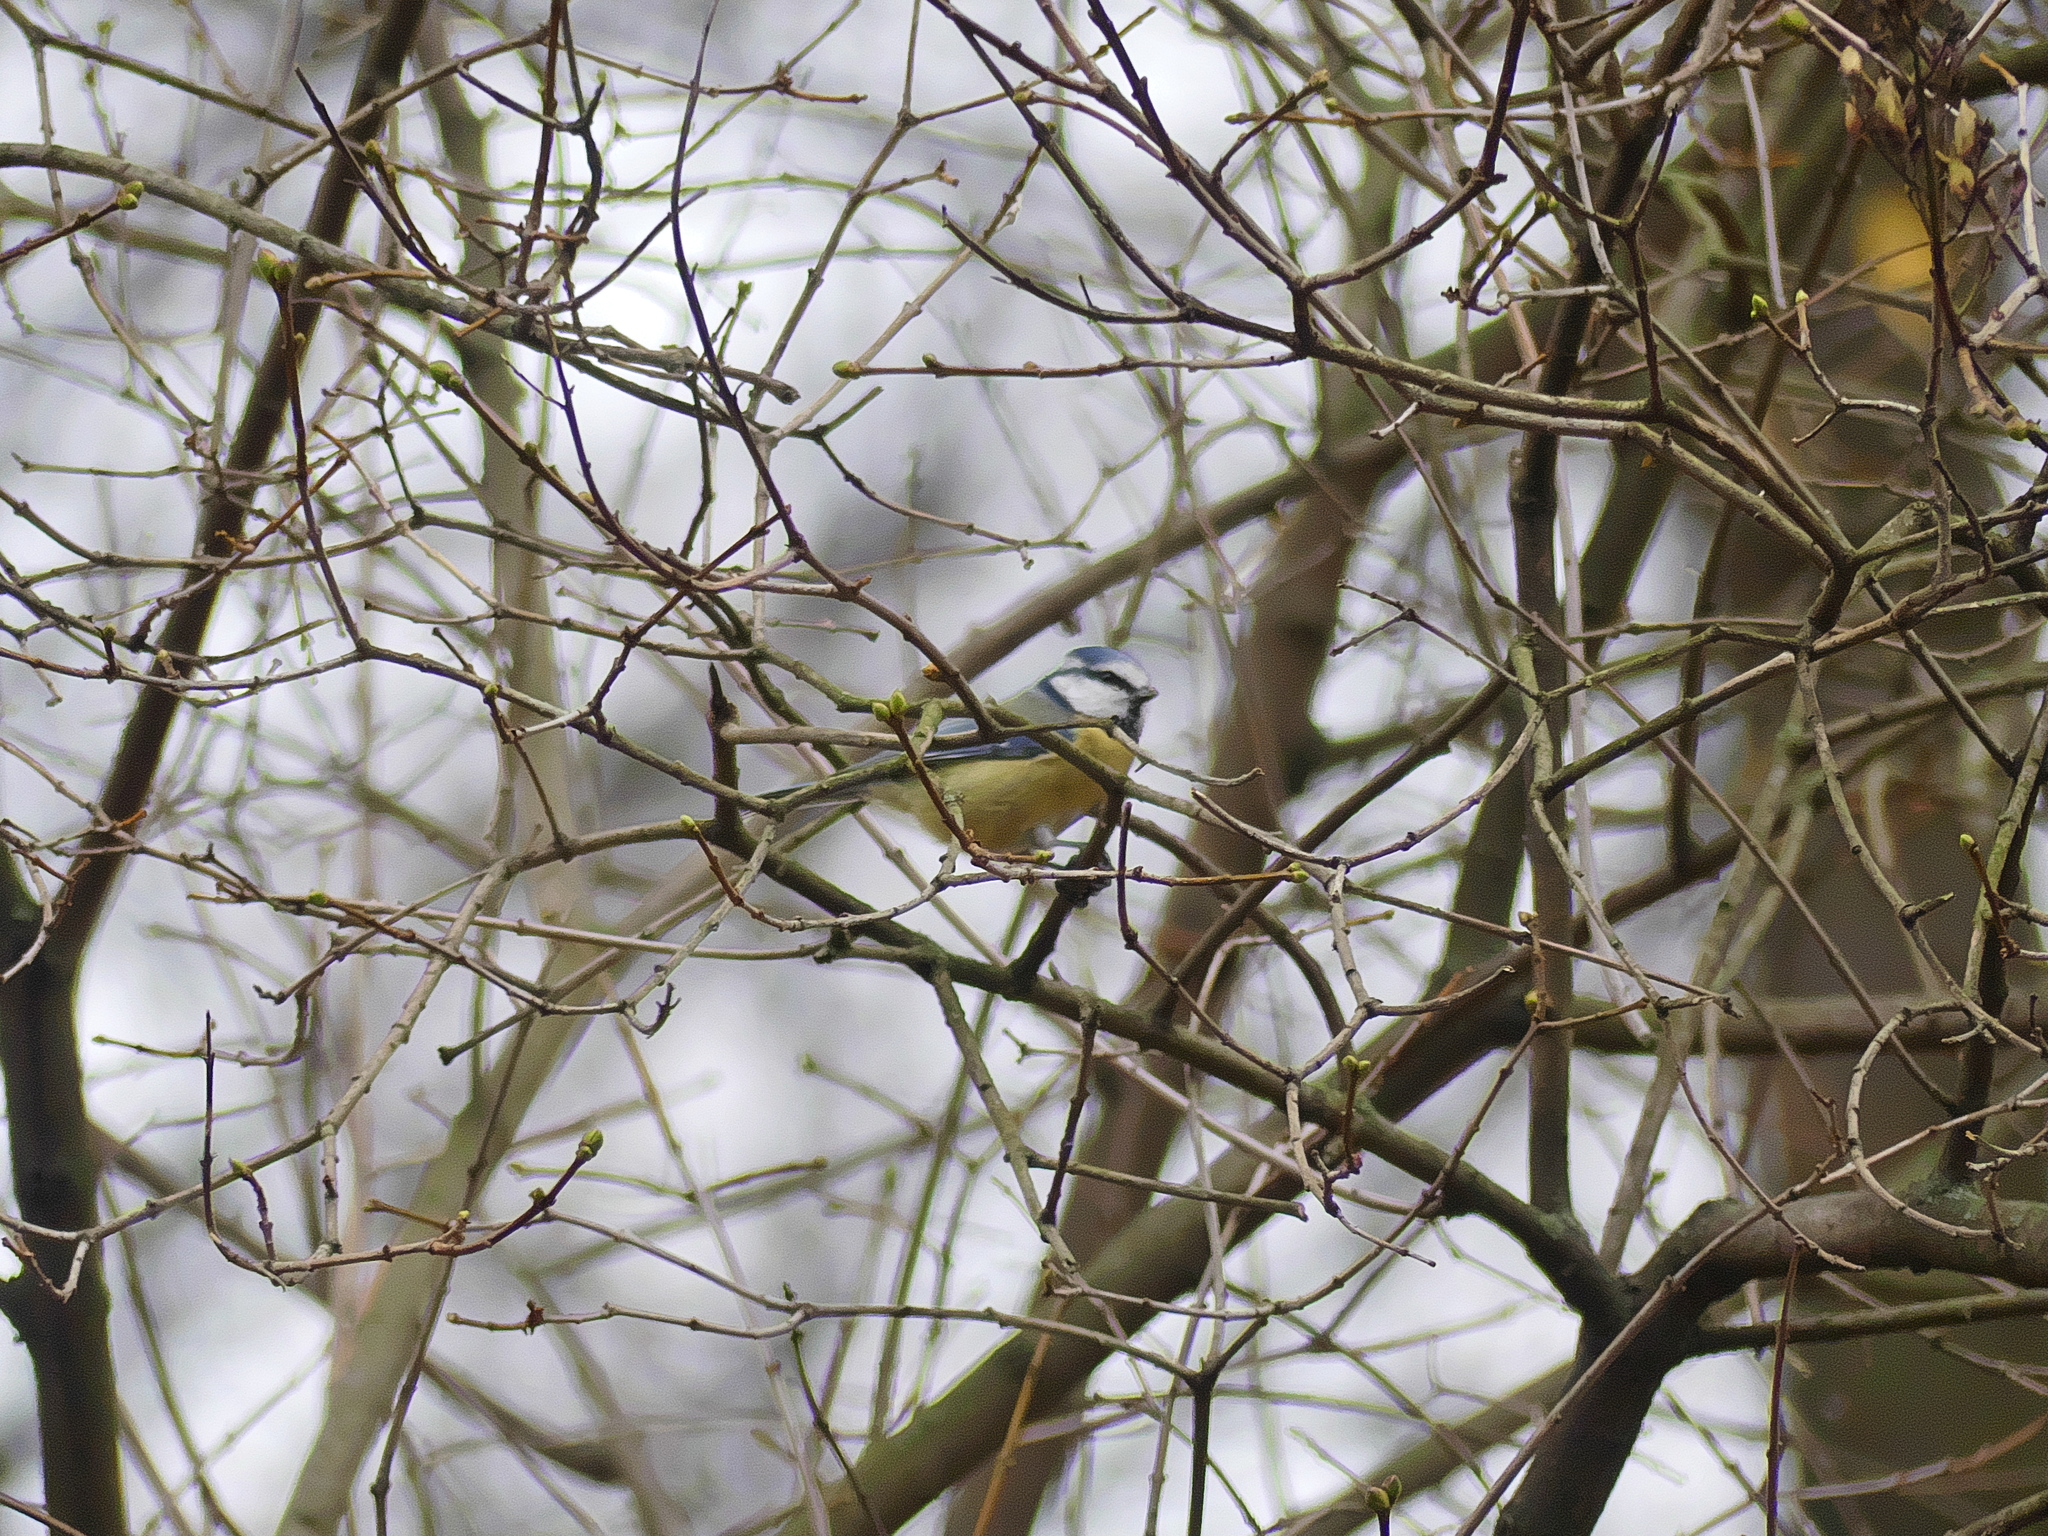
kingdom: Animalia
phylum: Chordata
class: Aves
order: Passeriformes
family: Paridae
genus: Cyanistes
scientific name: Cyanistes caeruleus
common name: Eurasian blue tit
